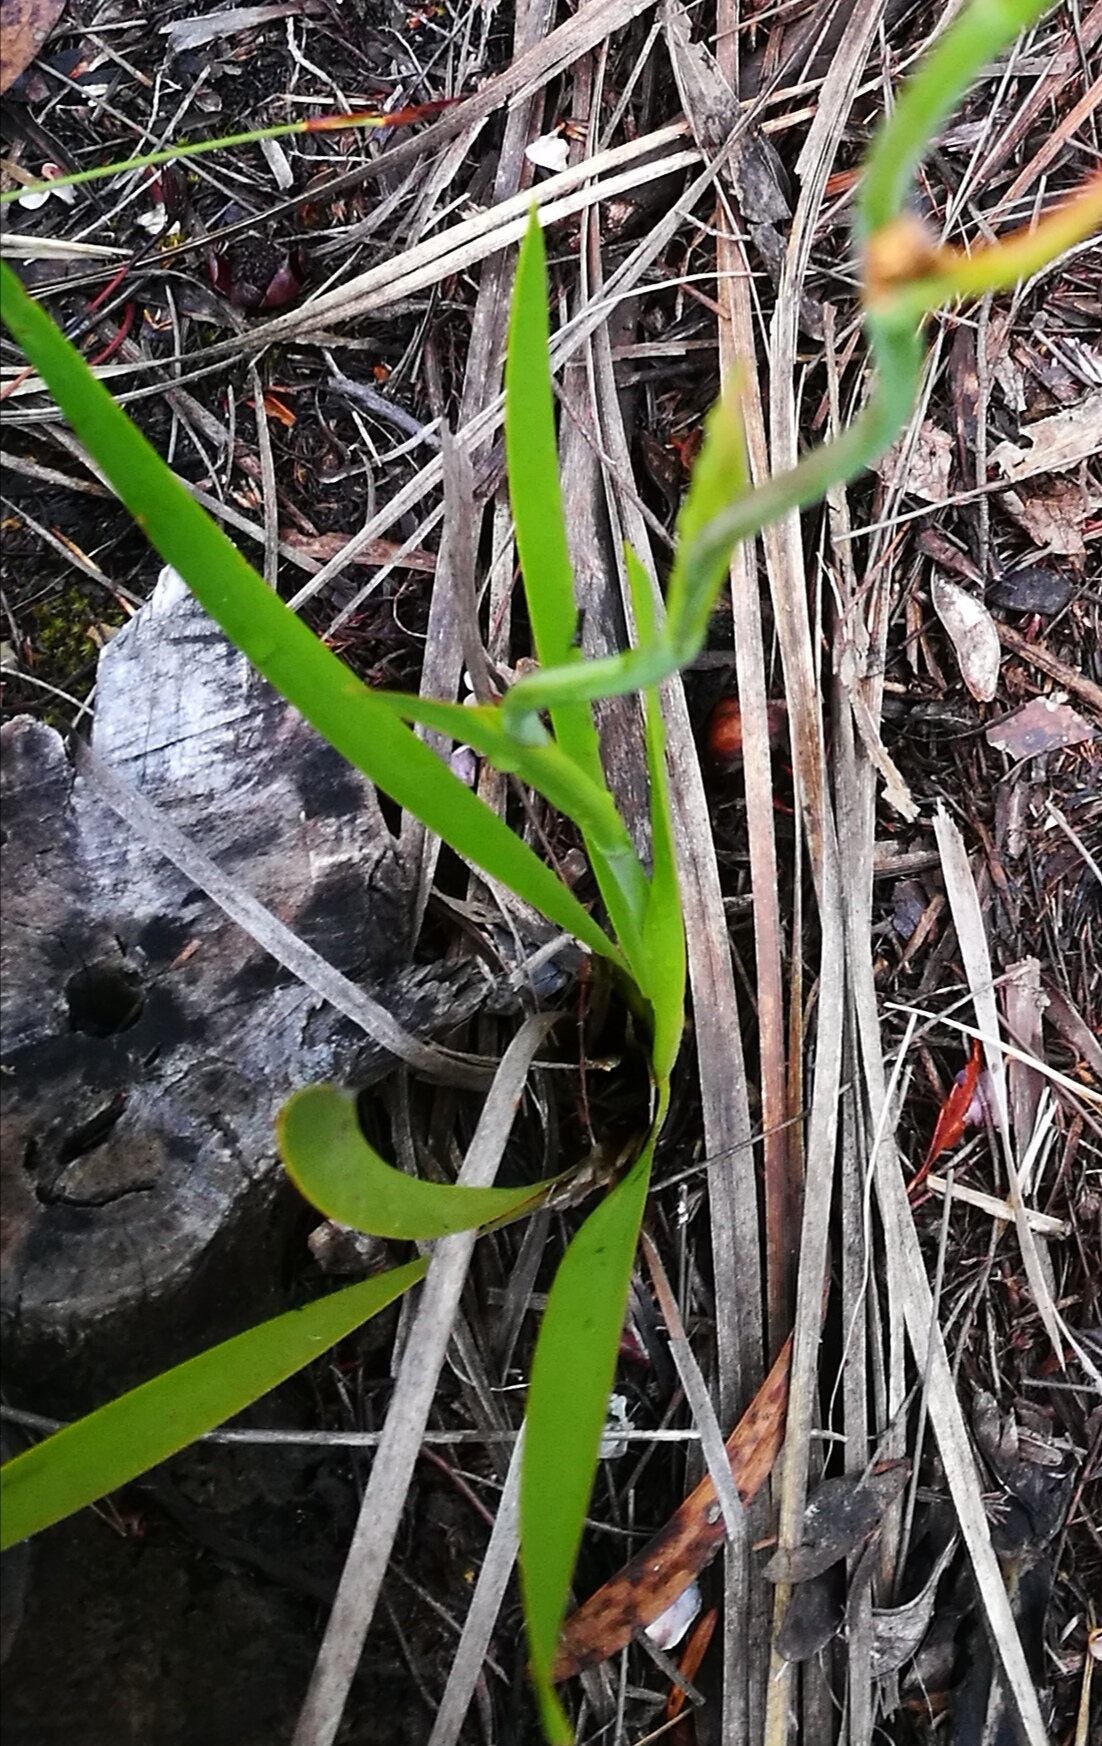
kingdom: Plantae
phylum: Tracheophyta
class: Liliopsida
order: Asparagales
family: Iridaceae
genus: Aristea
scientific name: Aristea pusilla
